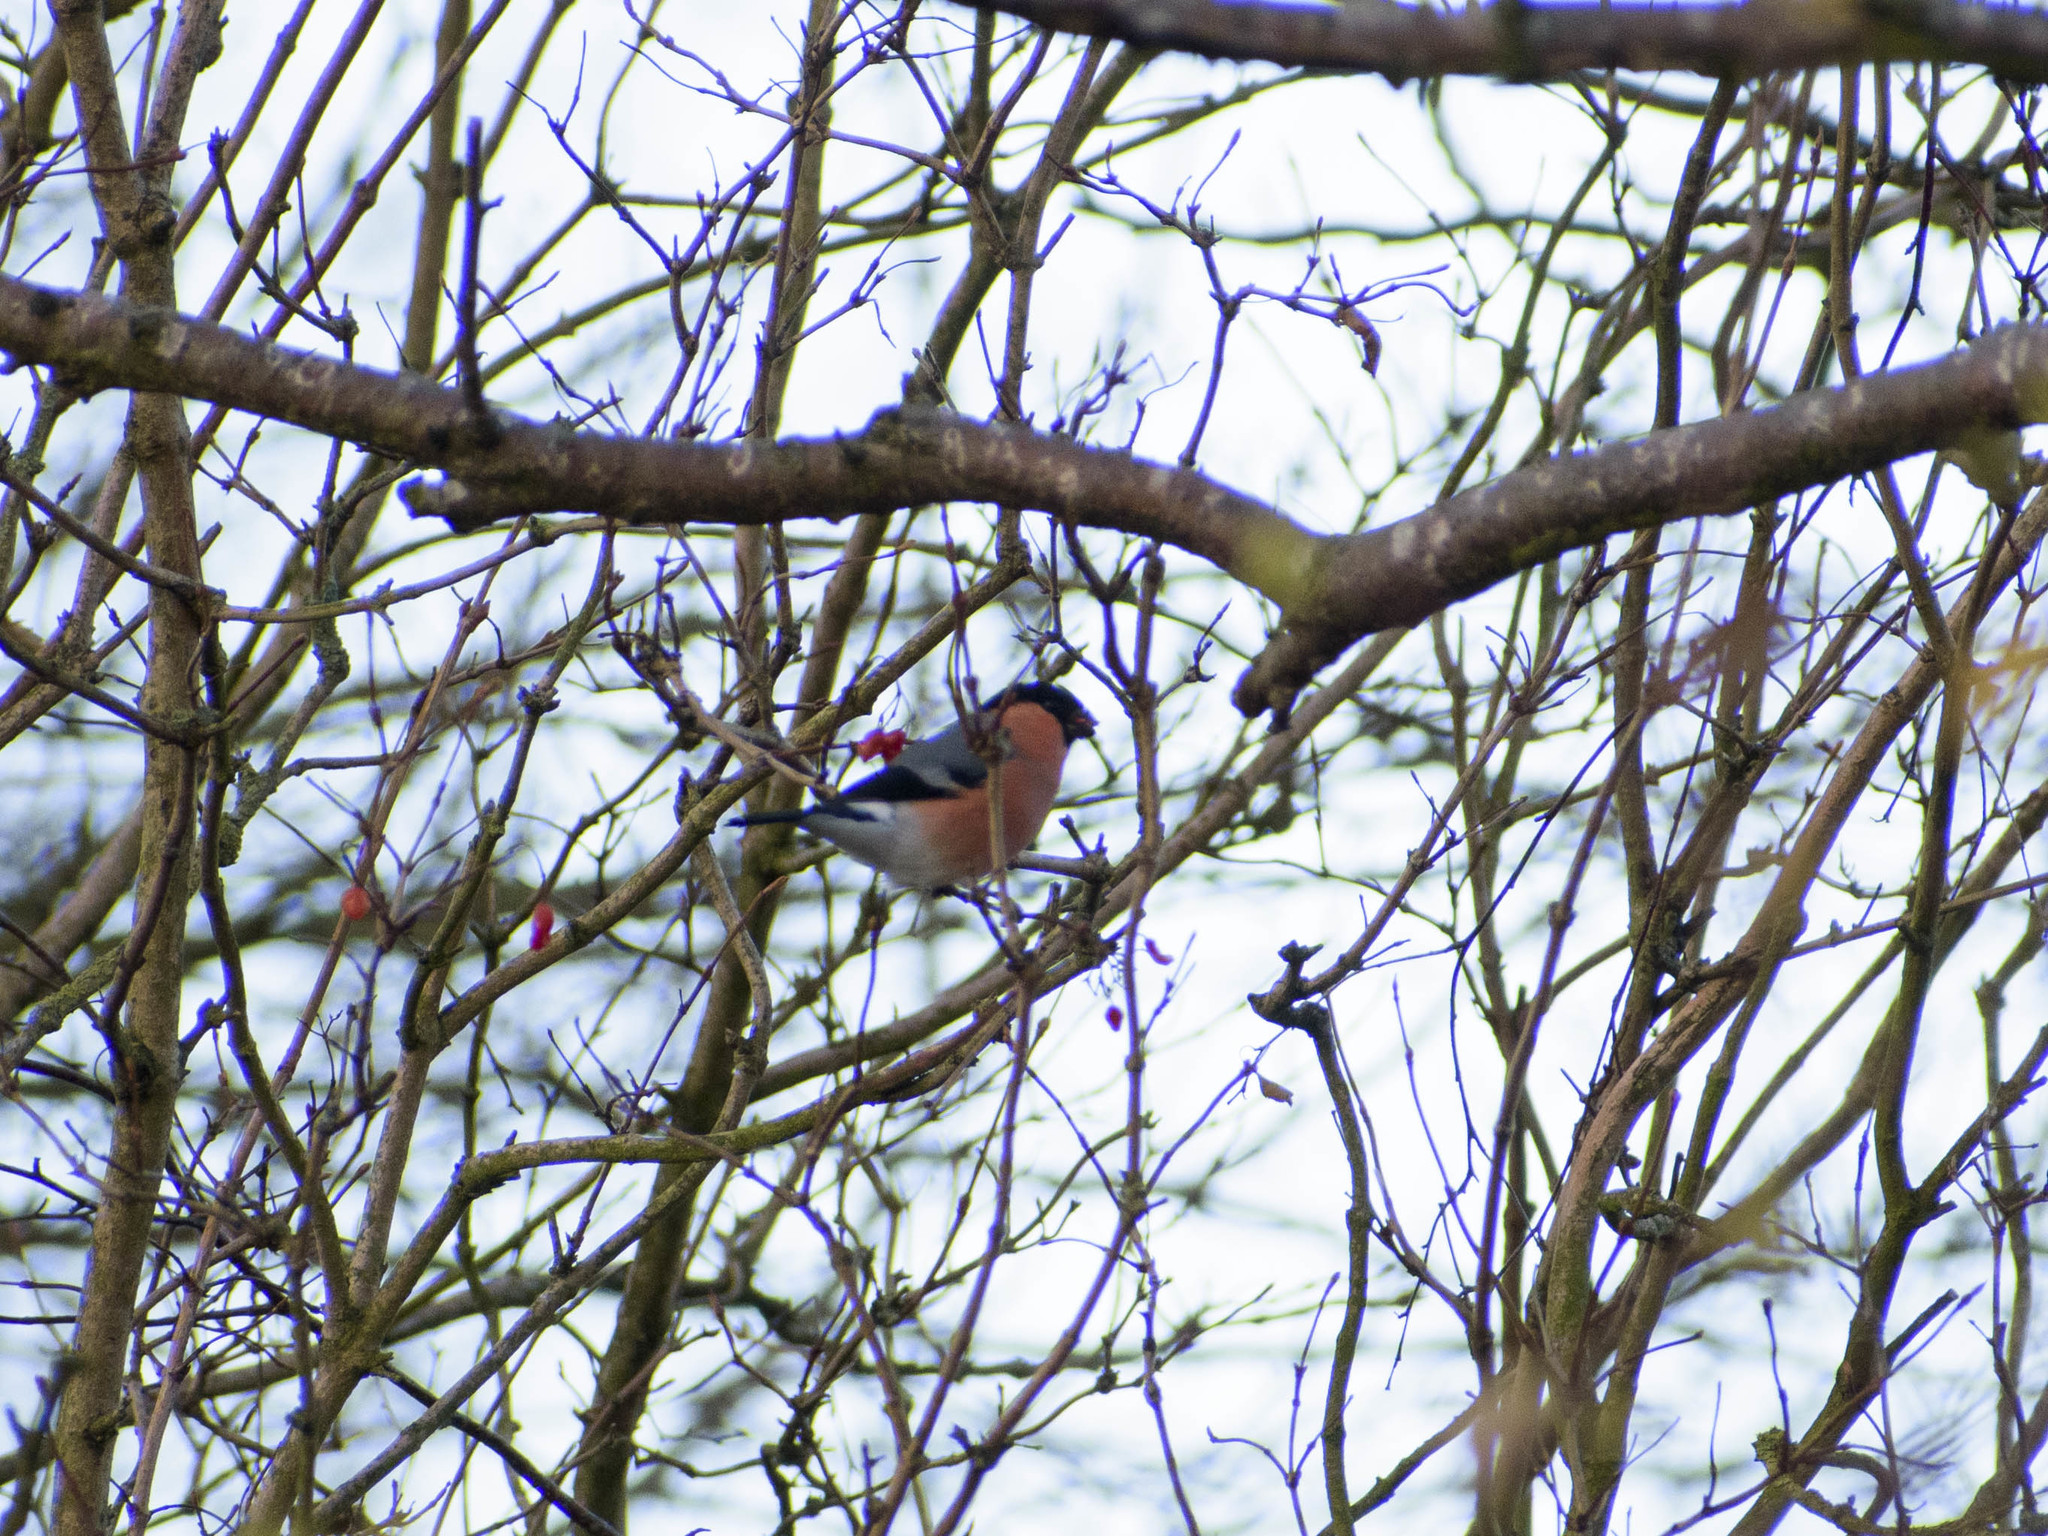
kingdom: Animalia
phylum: Chordata
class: Aves
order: Passeriformes
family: Fringillidae
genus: Pyrrhula
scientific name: Pyrrhula pyrrhula
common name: Eurasian bullfinch
